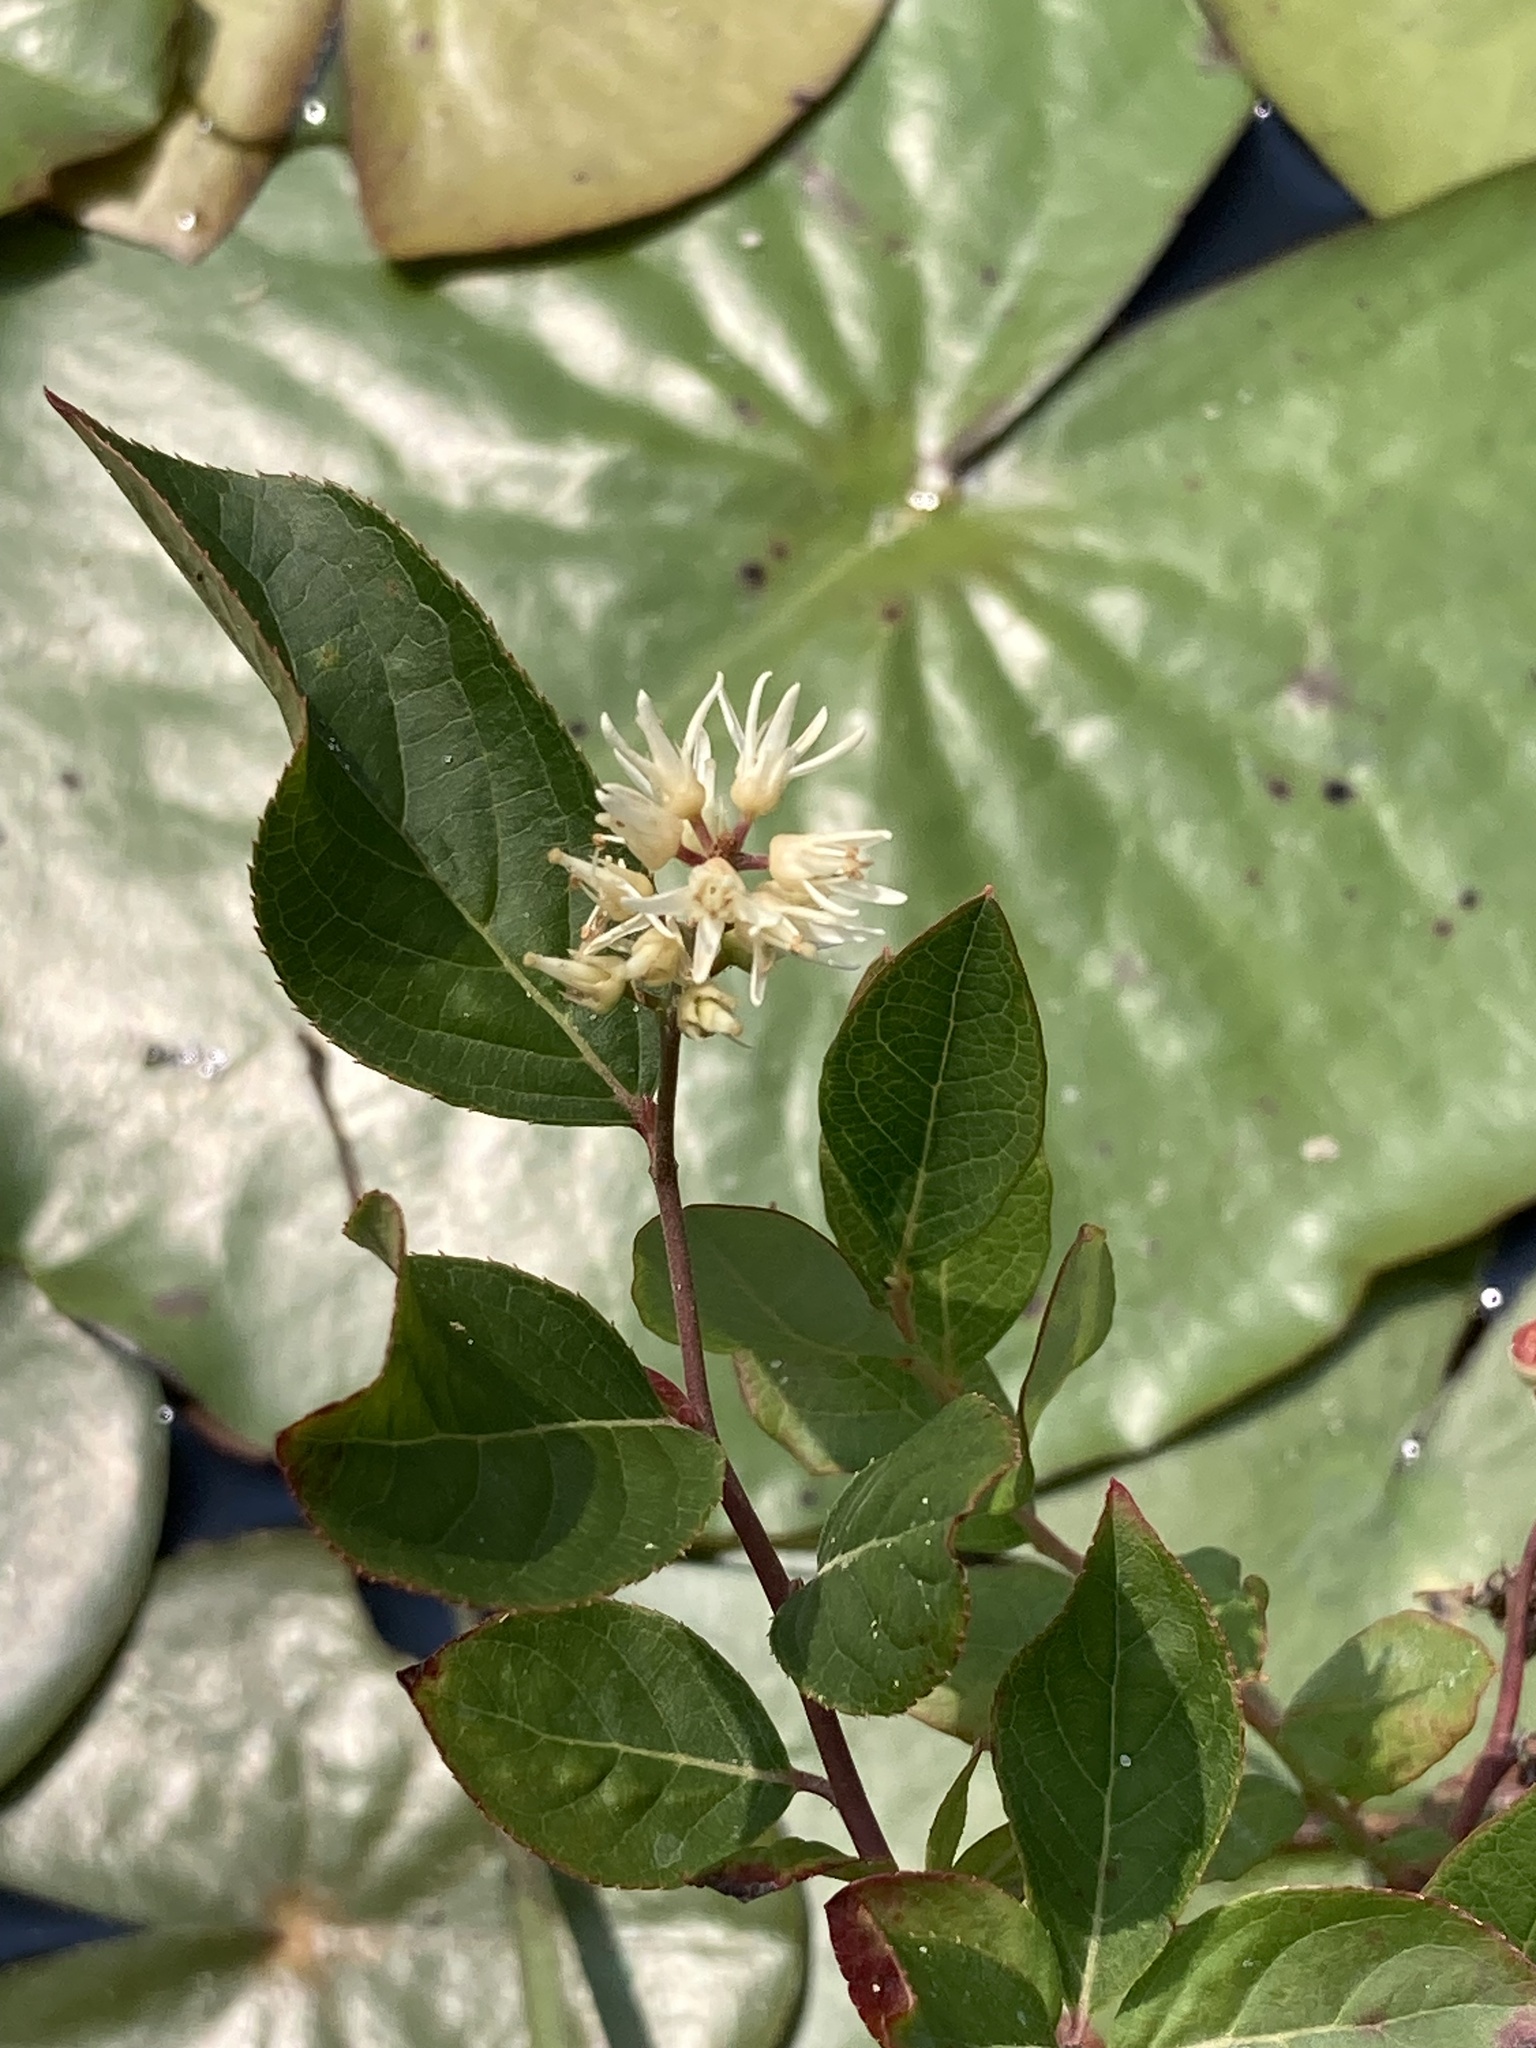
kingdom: Plantae
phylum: Tracheophyta
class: Magnoliopsida
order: Saxifragales
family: Iteaceae
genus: Itea
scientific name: Itea virginica
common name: Sweetspire
